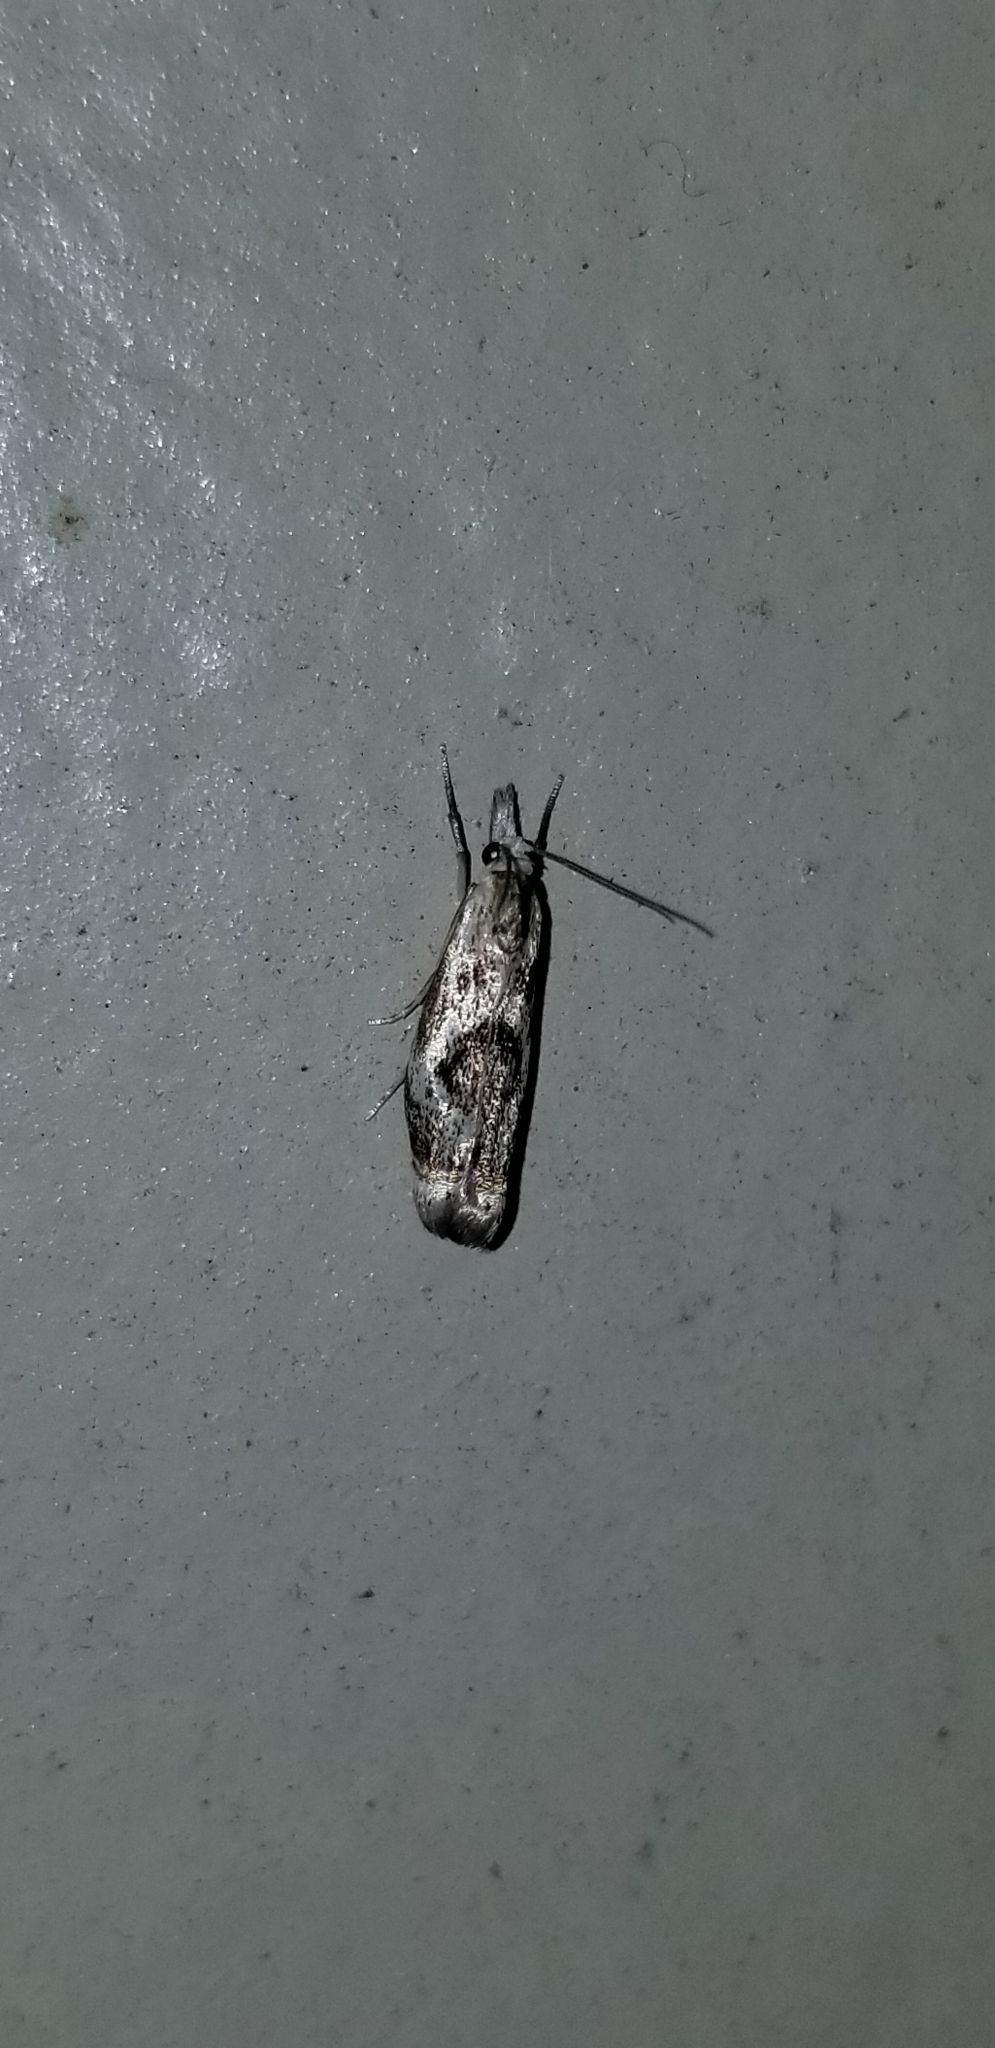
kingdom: Animalia
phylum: Arthropoda
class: Insecta
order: Lepidoptera
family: Crambidae
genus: Microcrambus
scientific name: Microcrambus elegans
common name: Elegant grass-veneer
